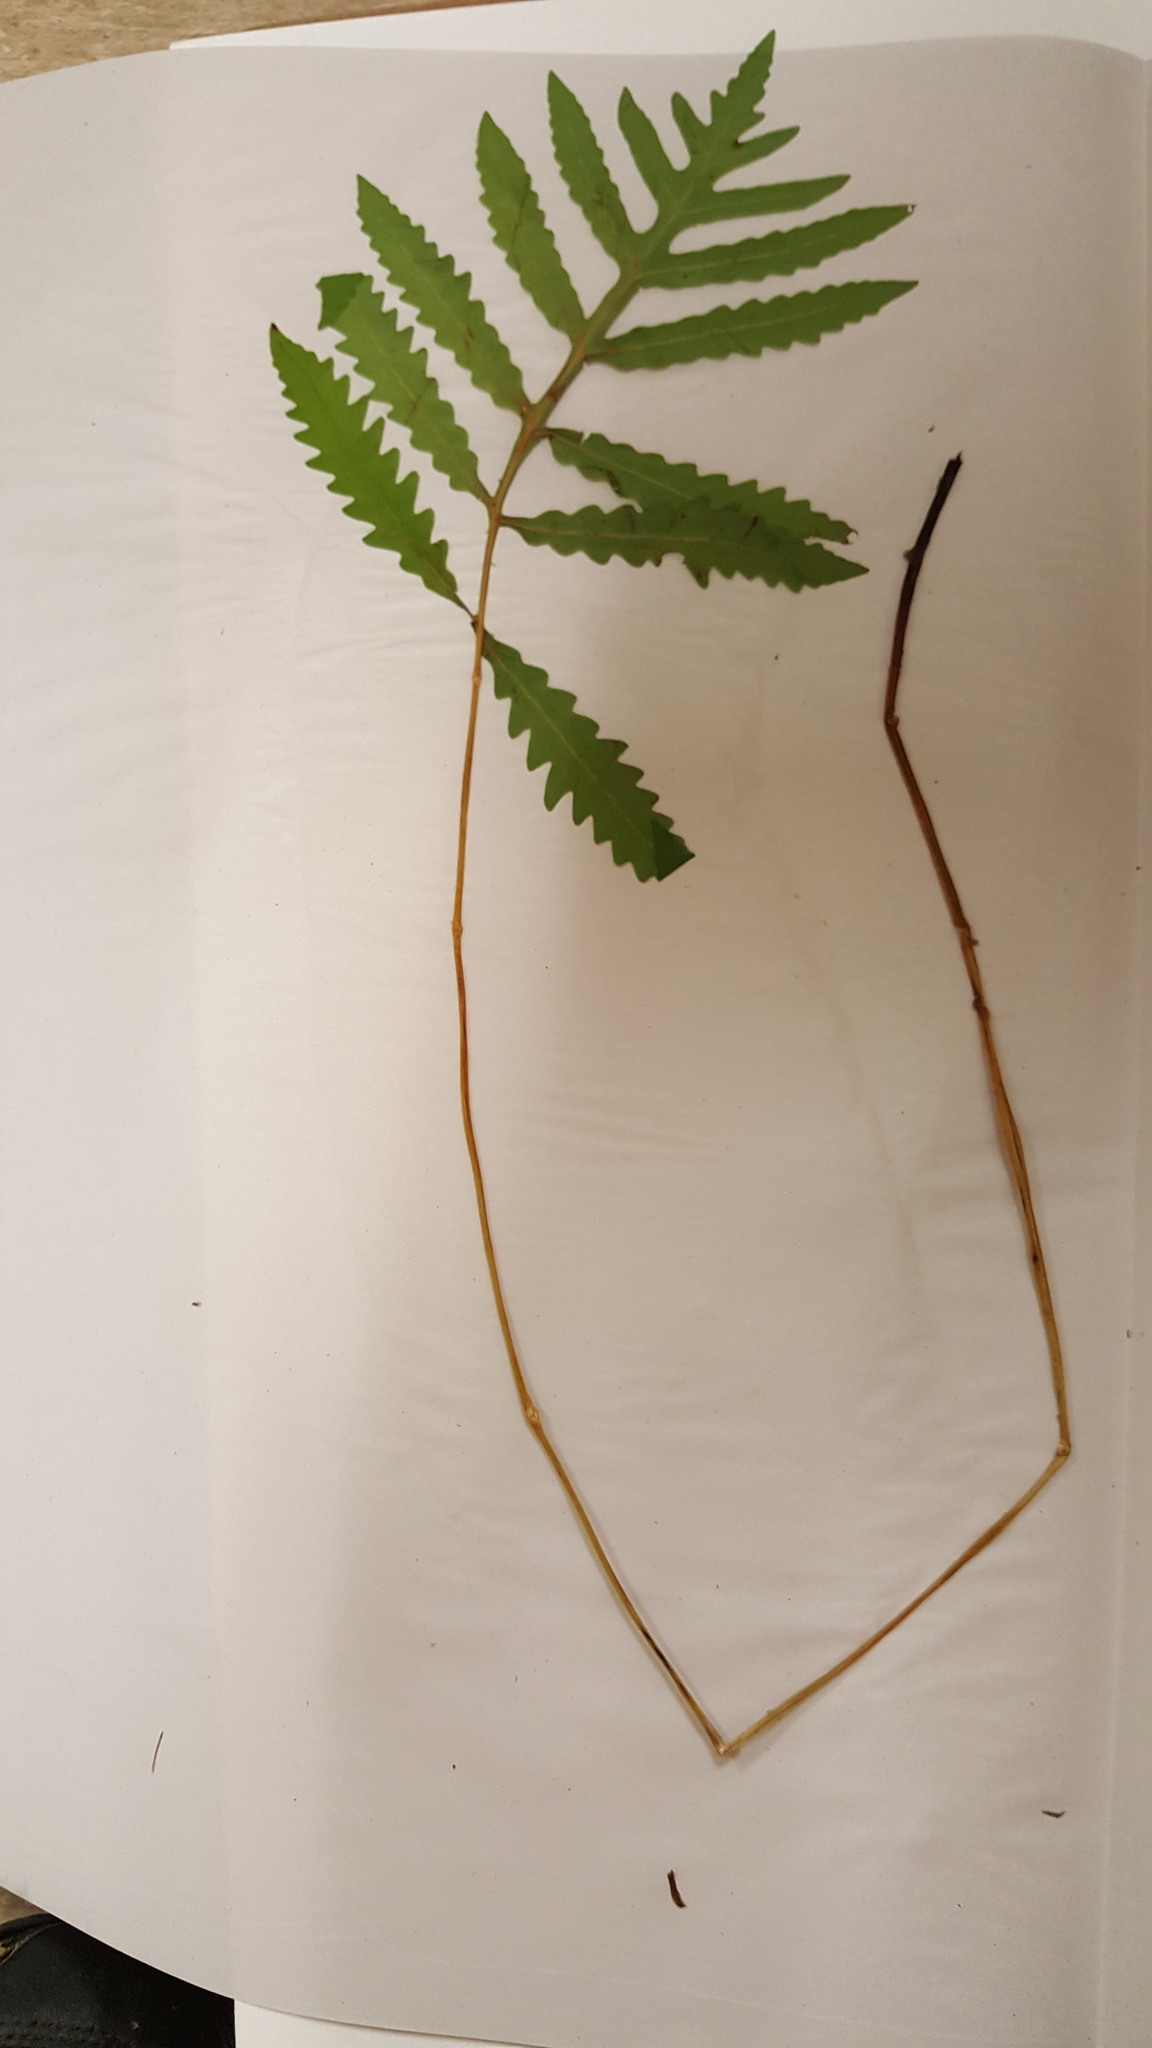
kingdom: Plantae
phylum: Tracheophyta
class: Polypodiopsida
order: Polypodiales
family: Onocleaceae
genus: Onoclea
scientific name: Onoclea sensibilis
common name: Sensitive fern
